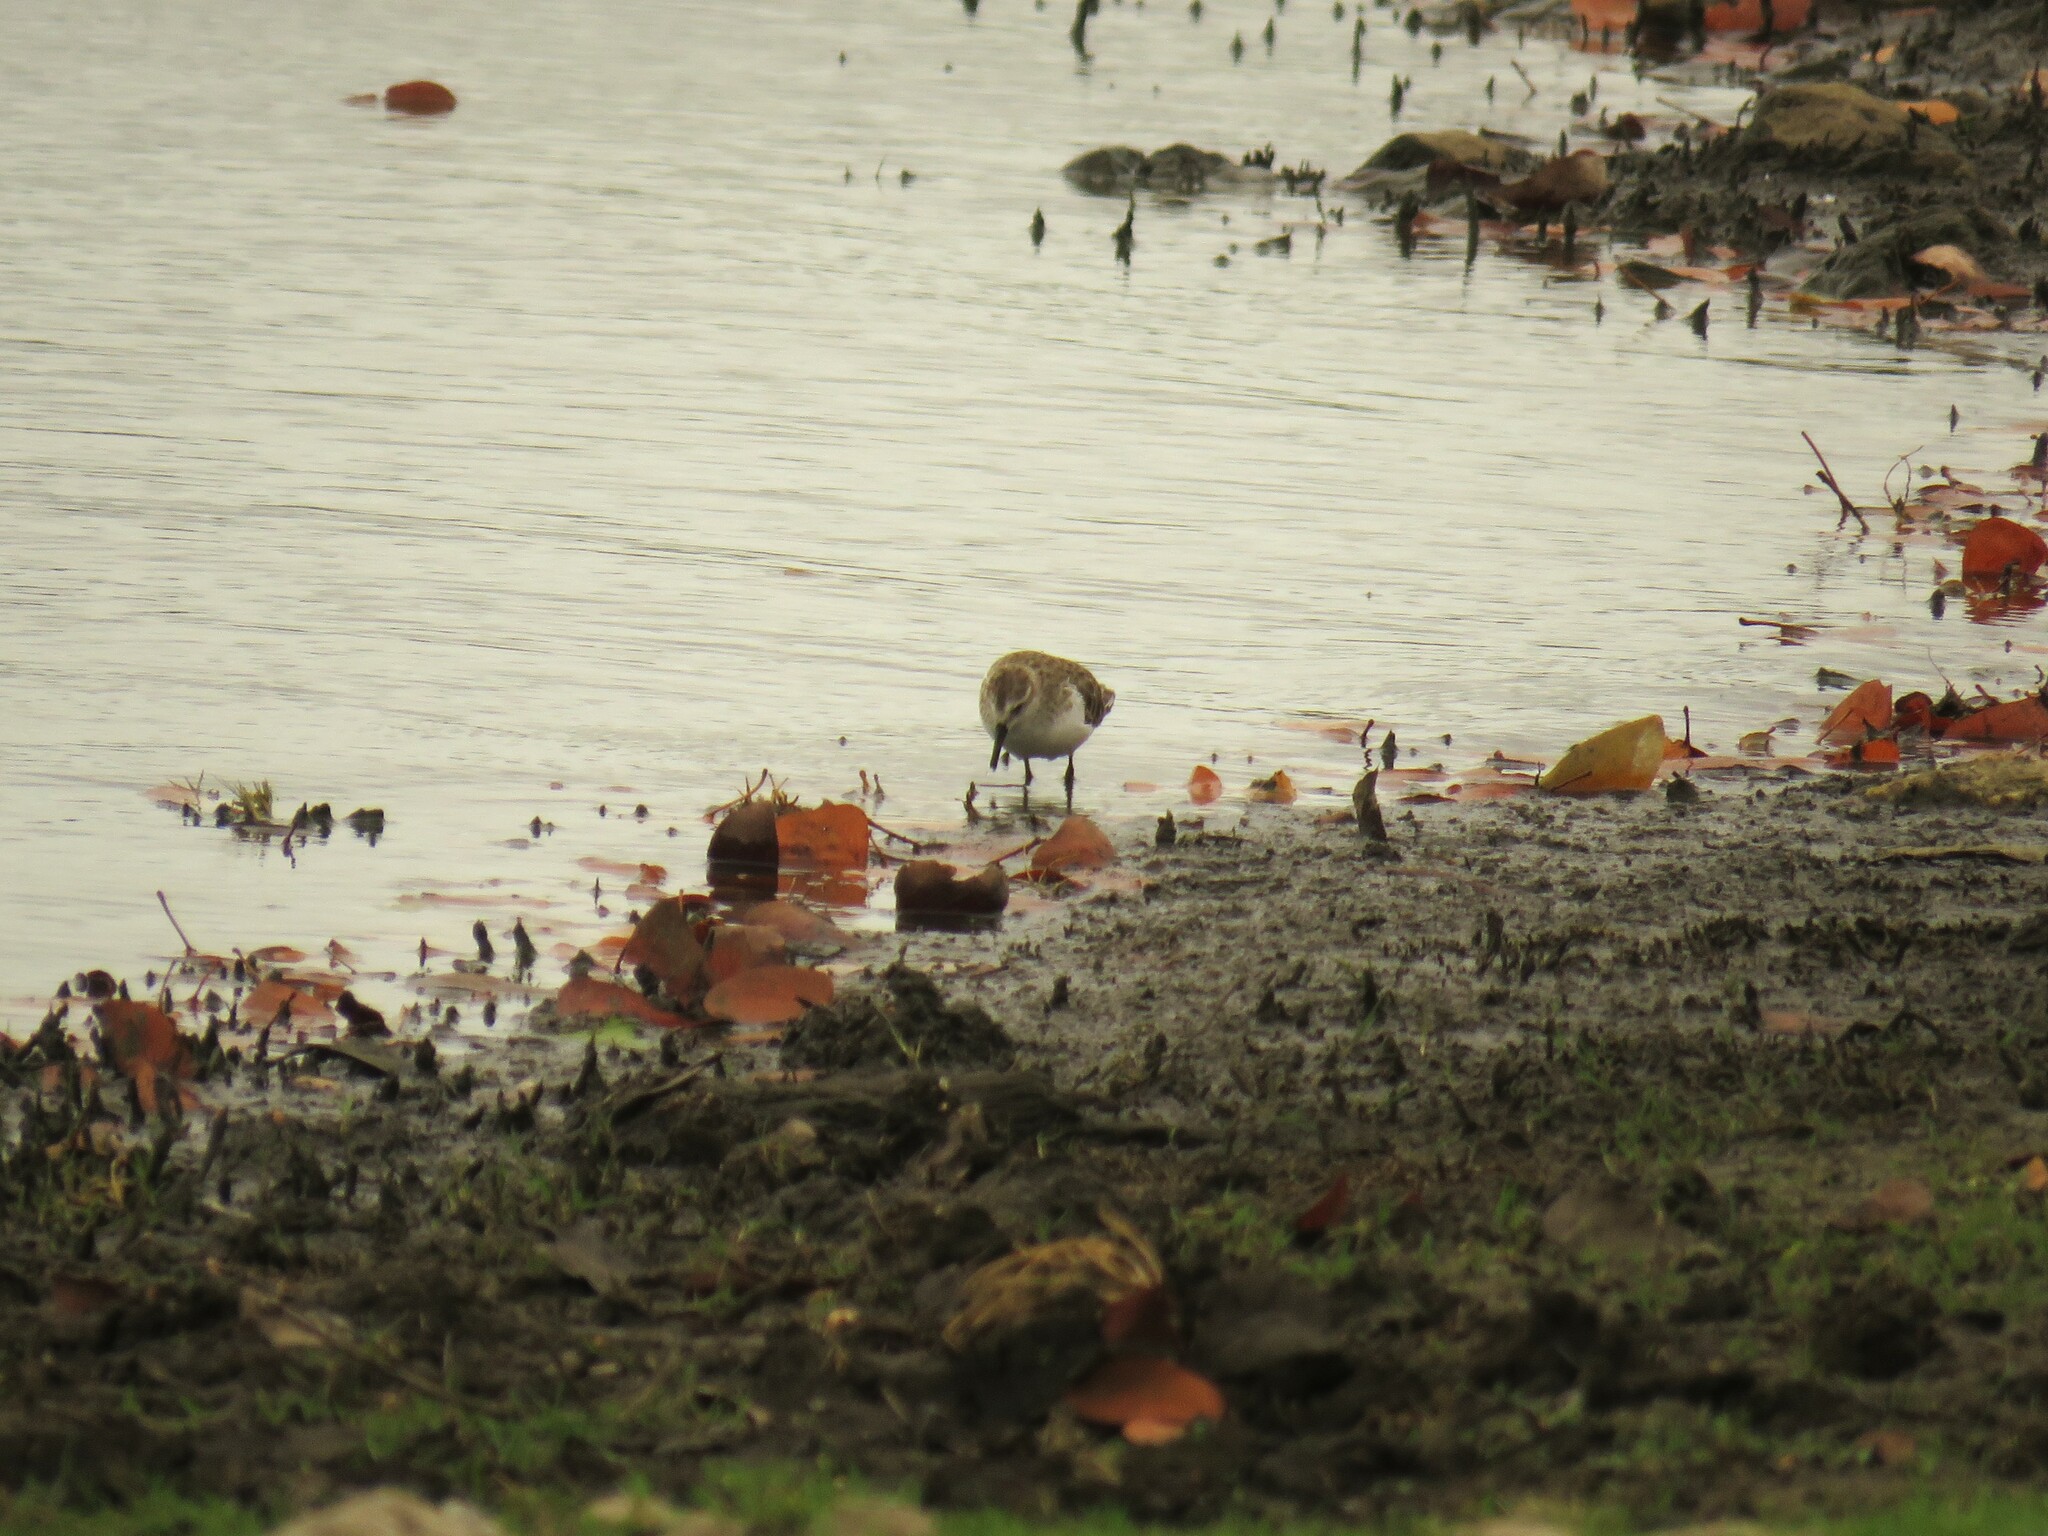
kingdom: Animalia
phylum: Chordata
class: Aves
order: Charadriiformes
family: Scolopacidae
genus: Calidris
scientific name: Calidris minuta
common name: Little stint
